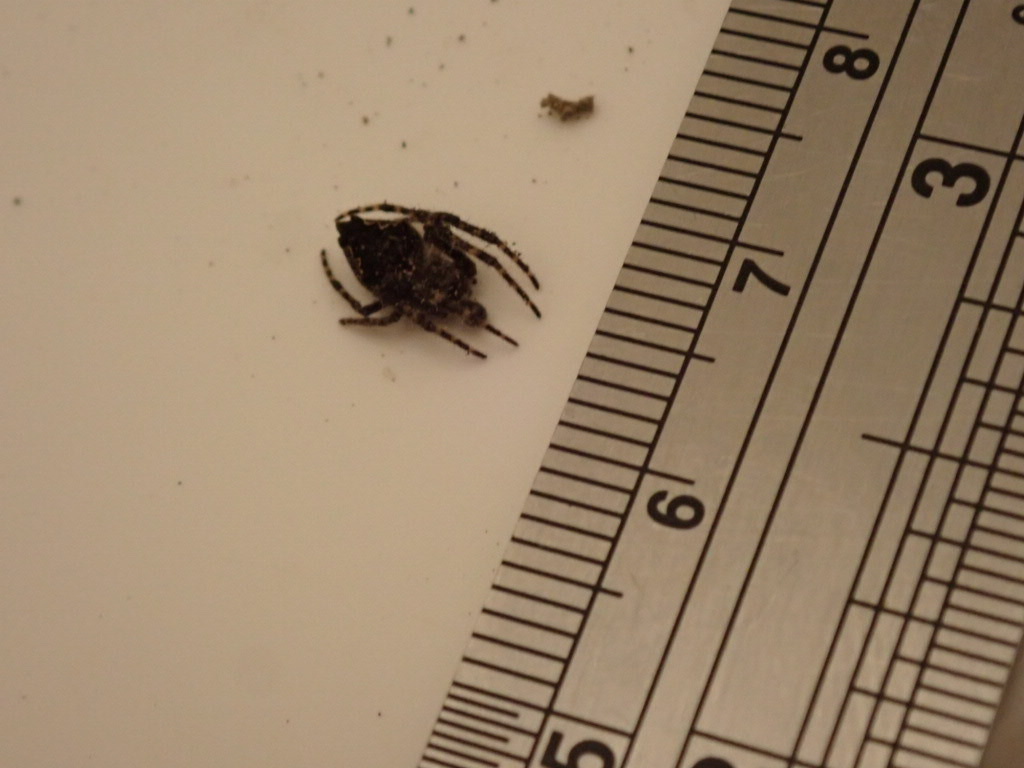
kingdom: Animalia
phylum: Arthropoda
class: Arachnida
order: Araneae
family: Araneidae
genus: Eriophora
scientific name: Eriophora pustulosa
